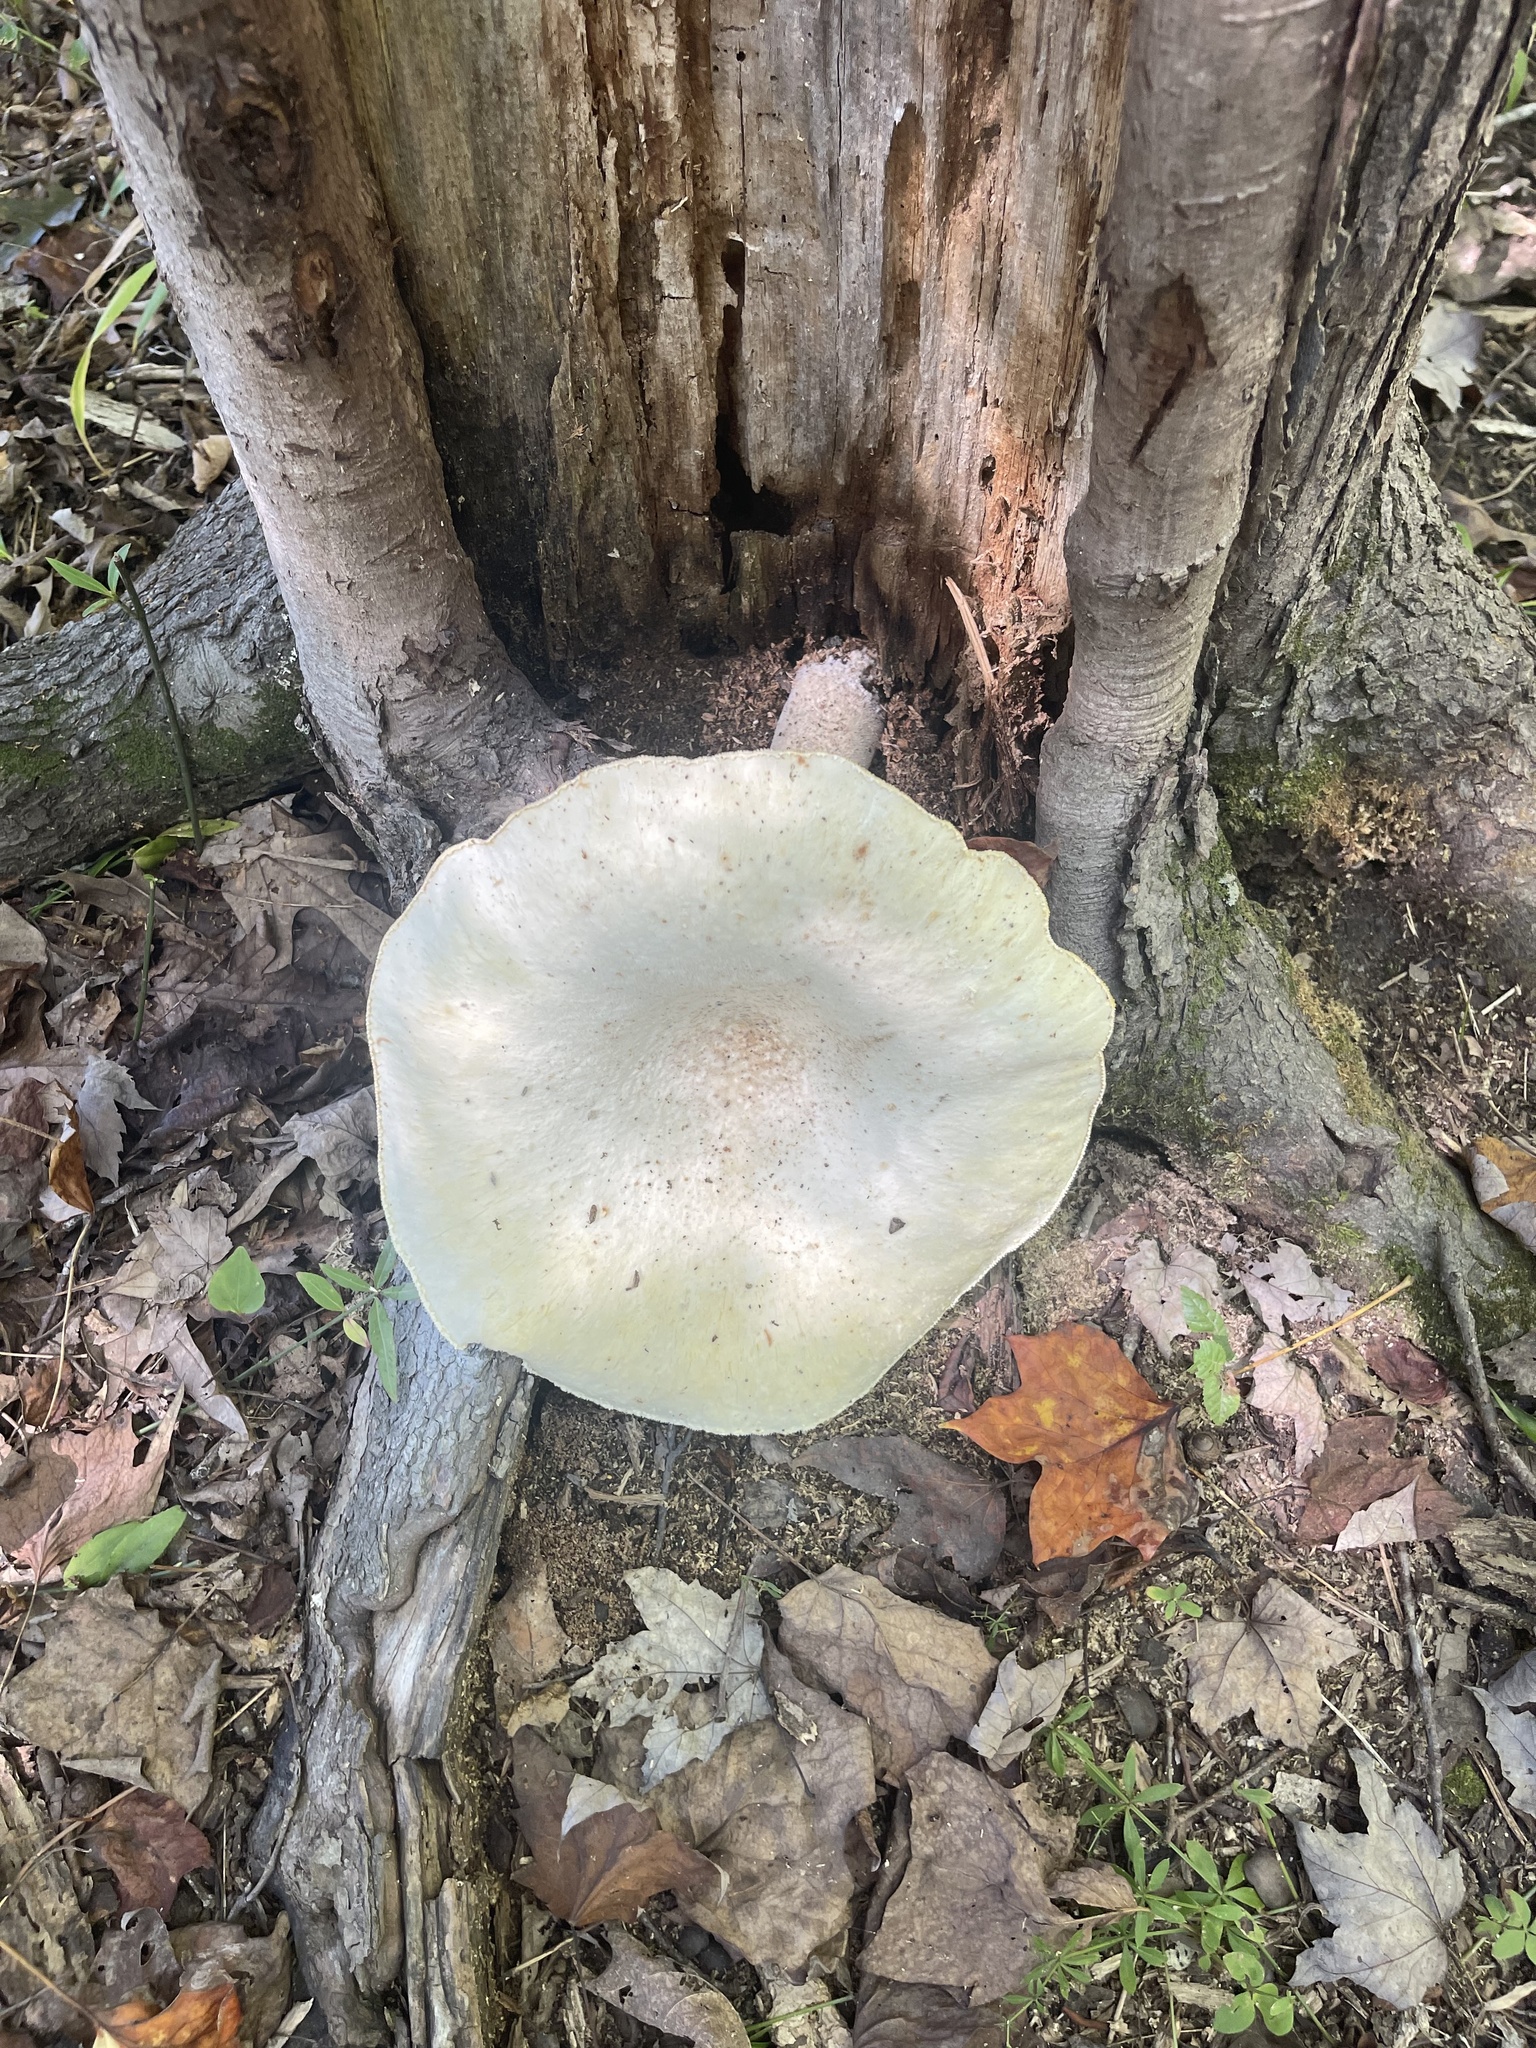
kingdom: Fungi
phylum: Basidiomycota
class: Agaricomycetes
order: Polyporales
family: Polyporaceae
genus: Lentinus
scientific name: Lentinus levis
